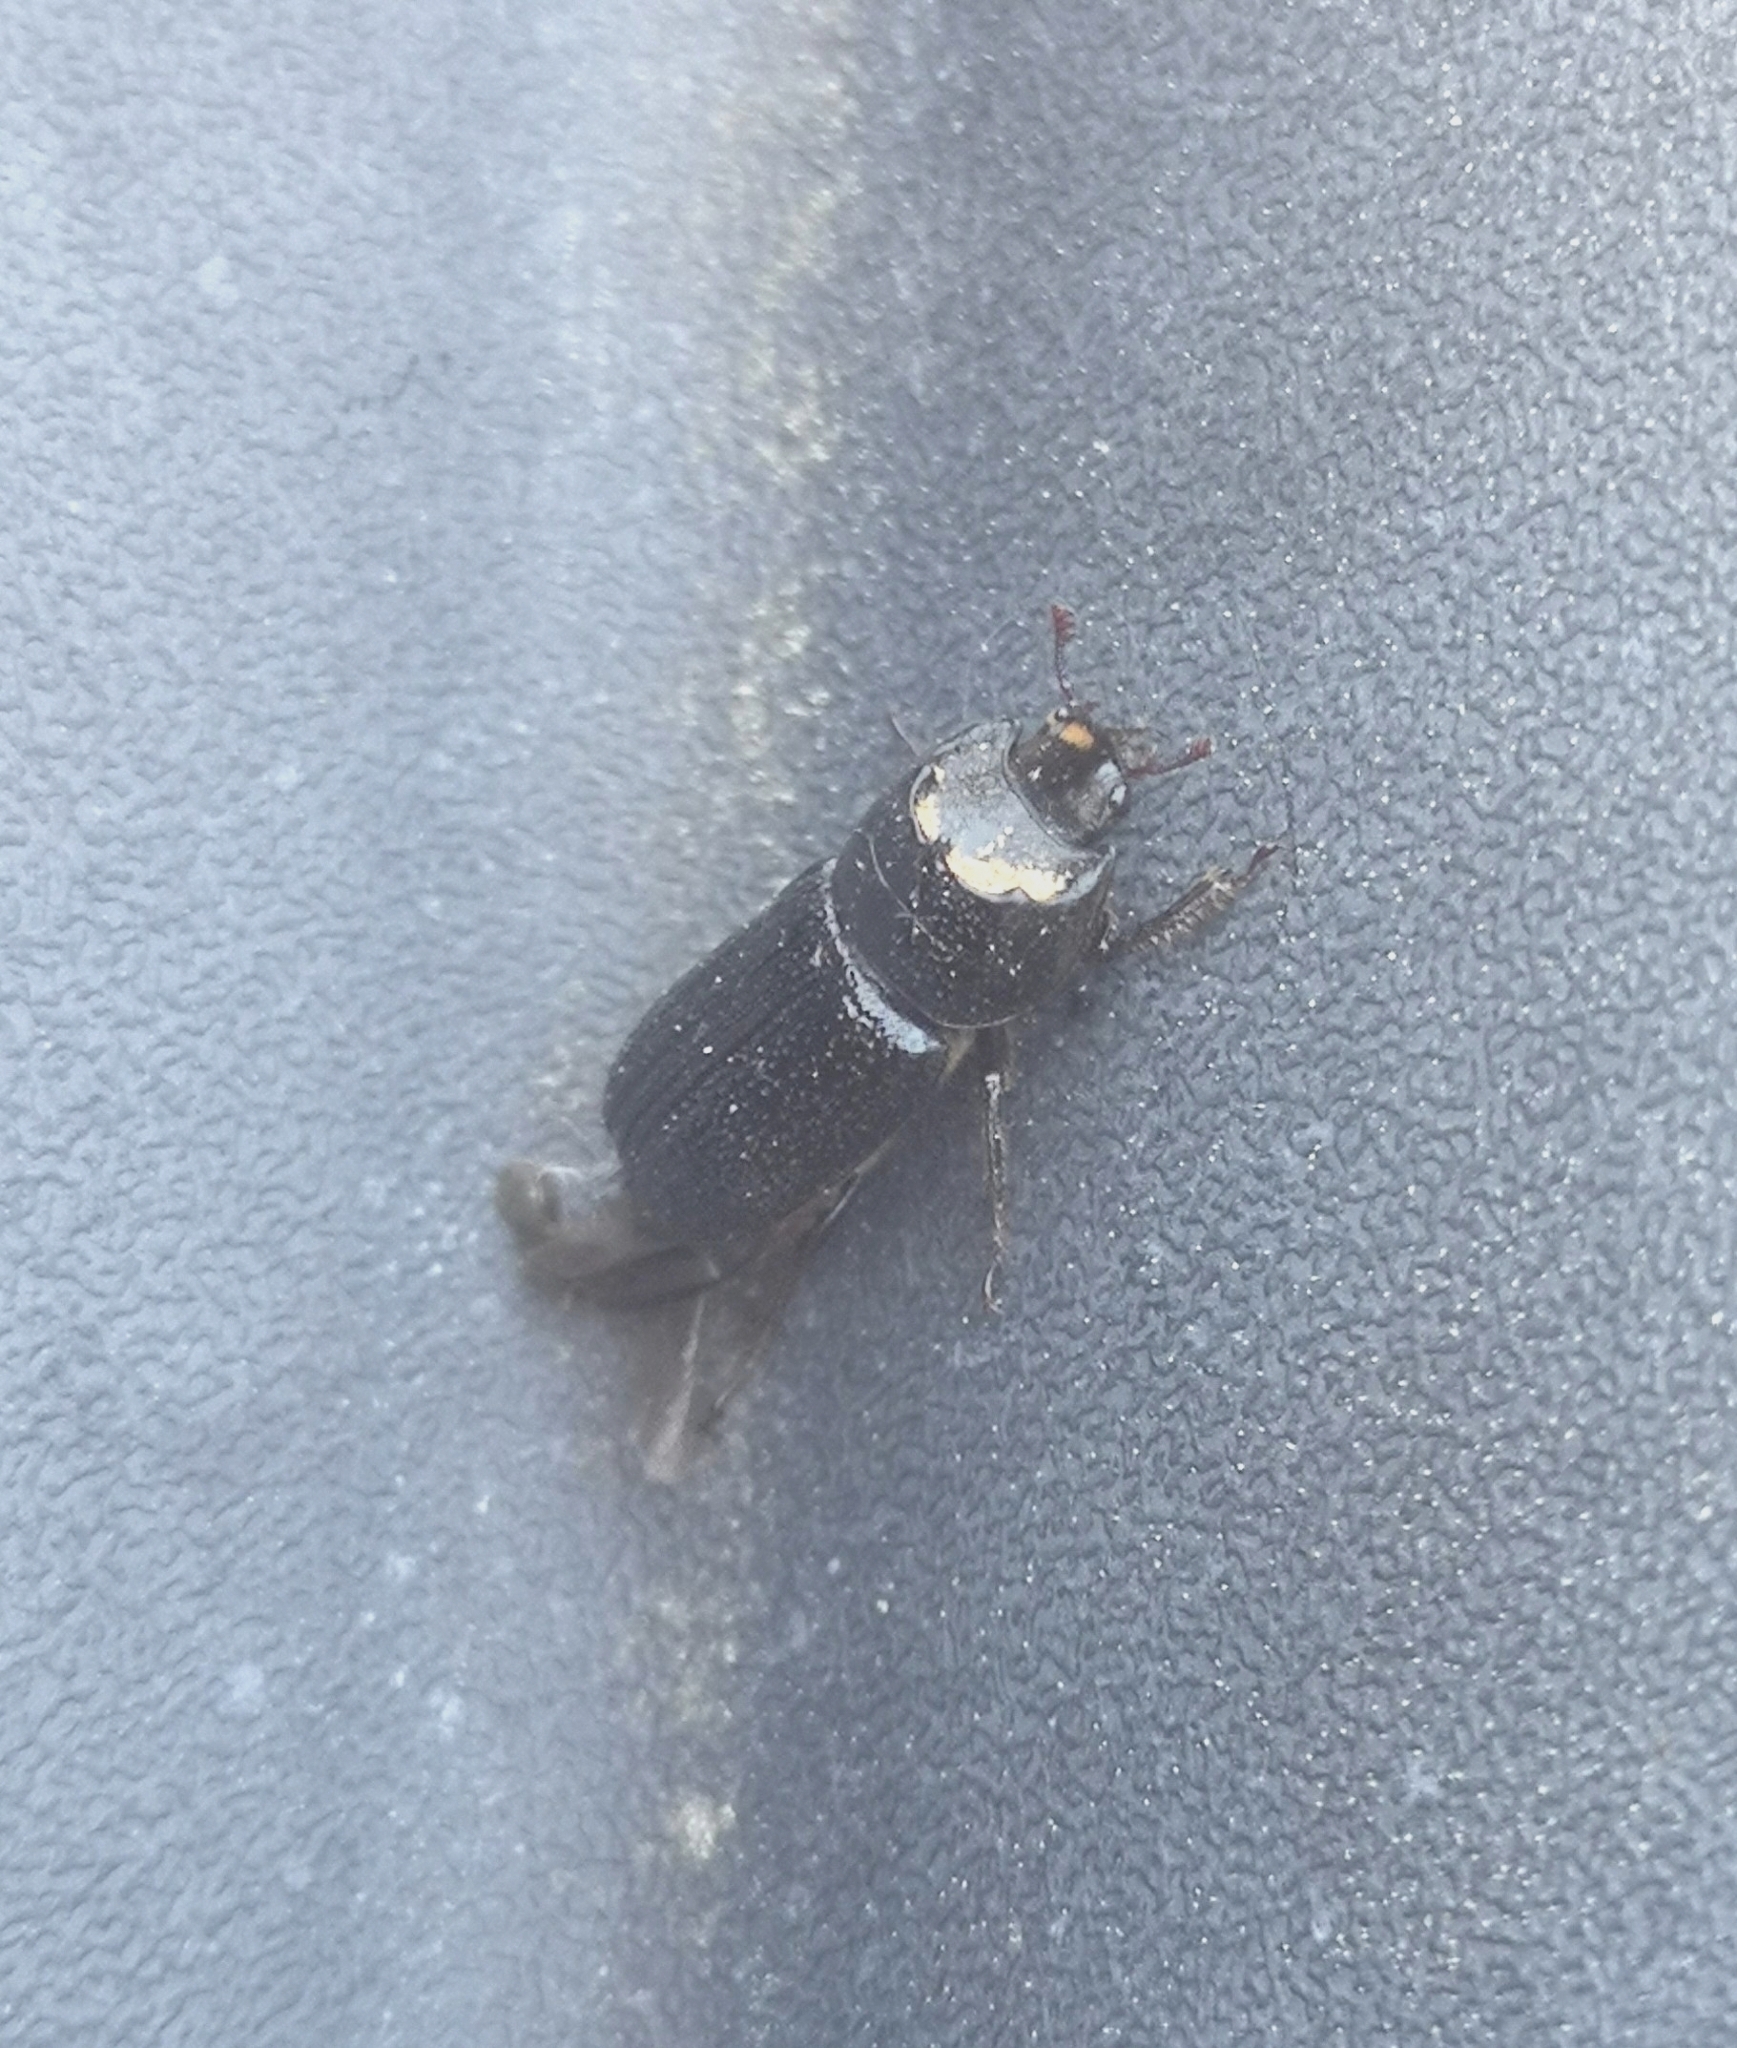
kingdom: Animalia
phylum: Arthropoda
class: Insecta
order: Coleoptera
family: Lucanidae
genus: Sinodendron
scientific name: Sinodendron cylindricum
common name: Rhinoceros beetle
